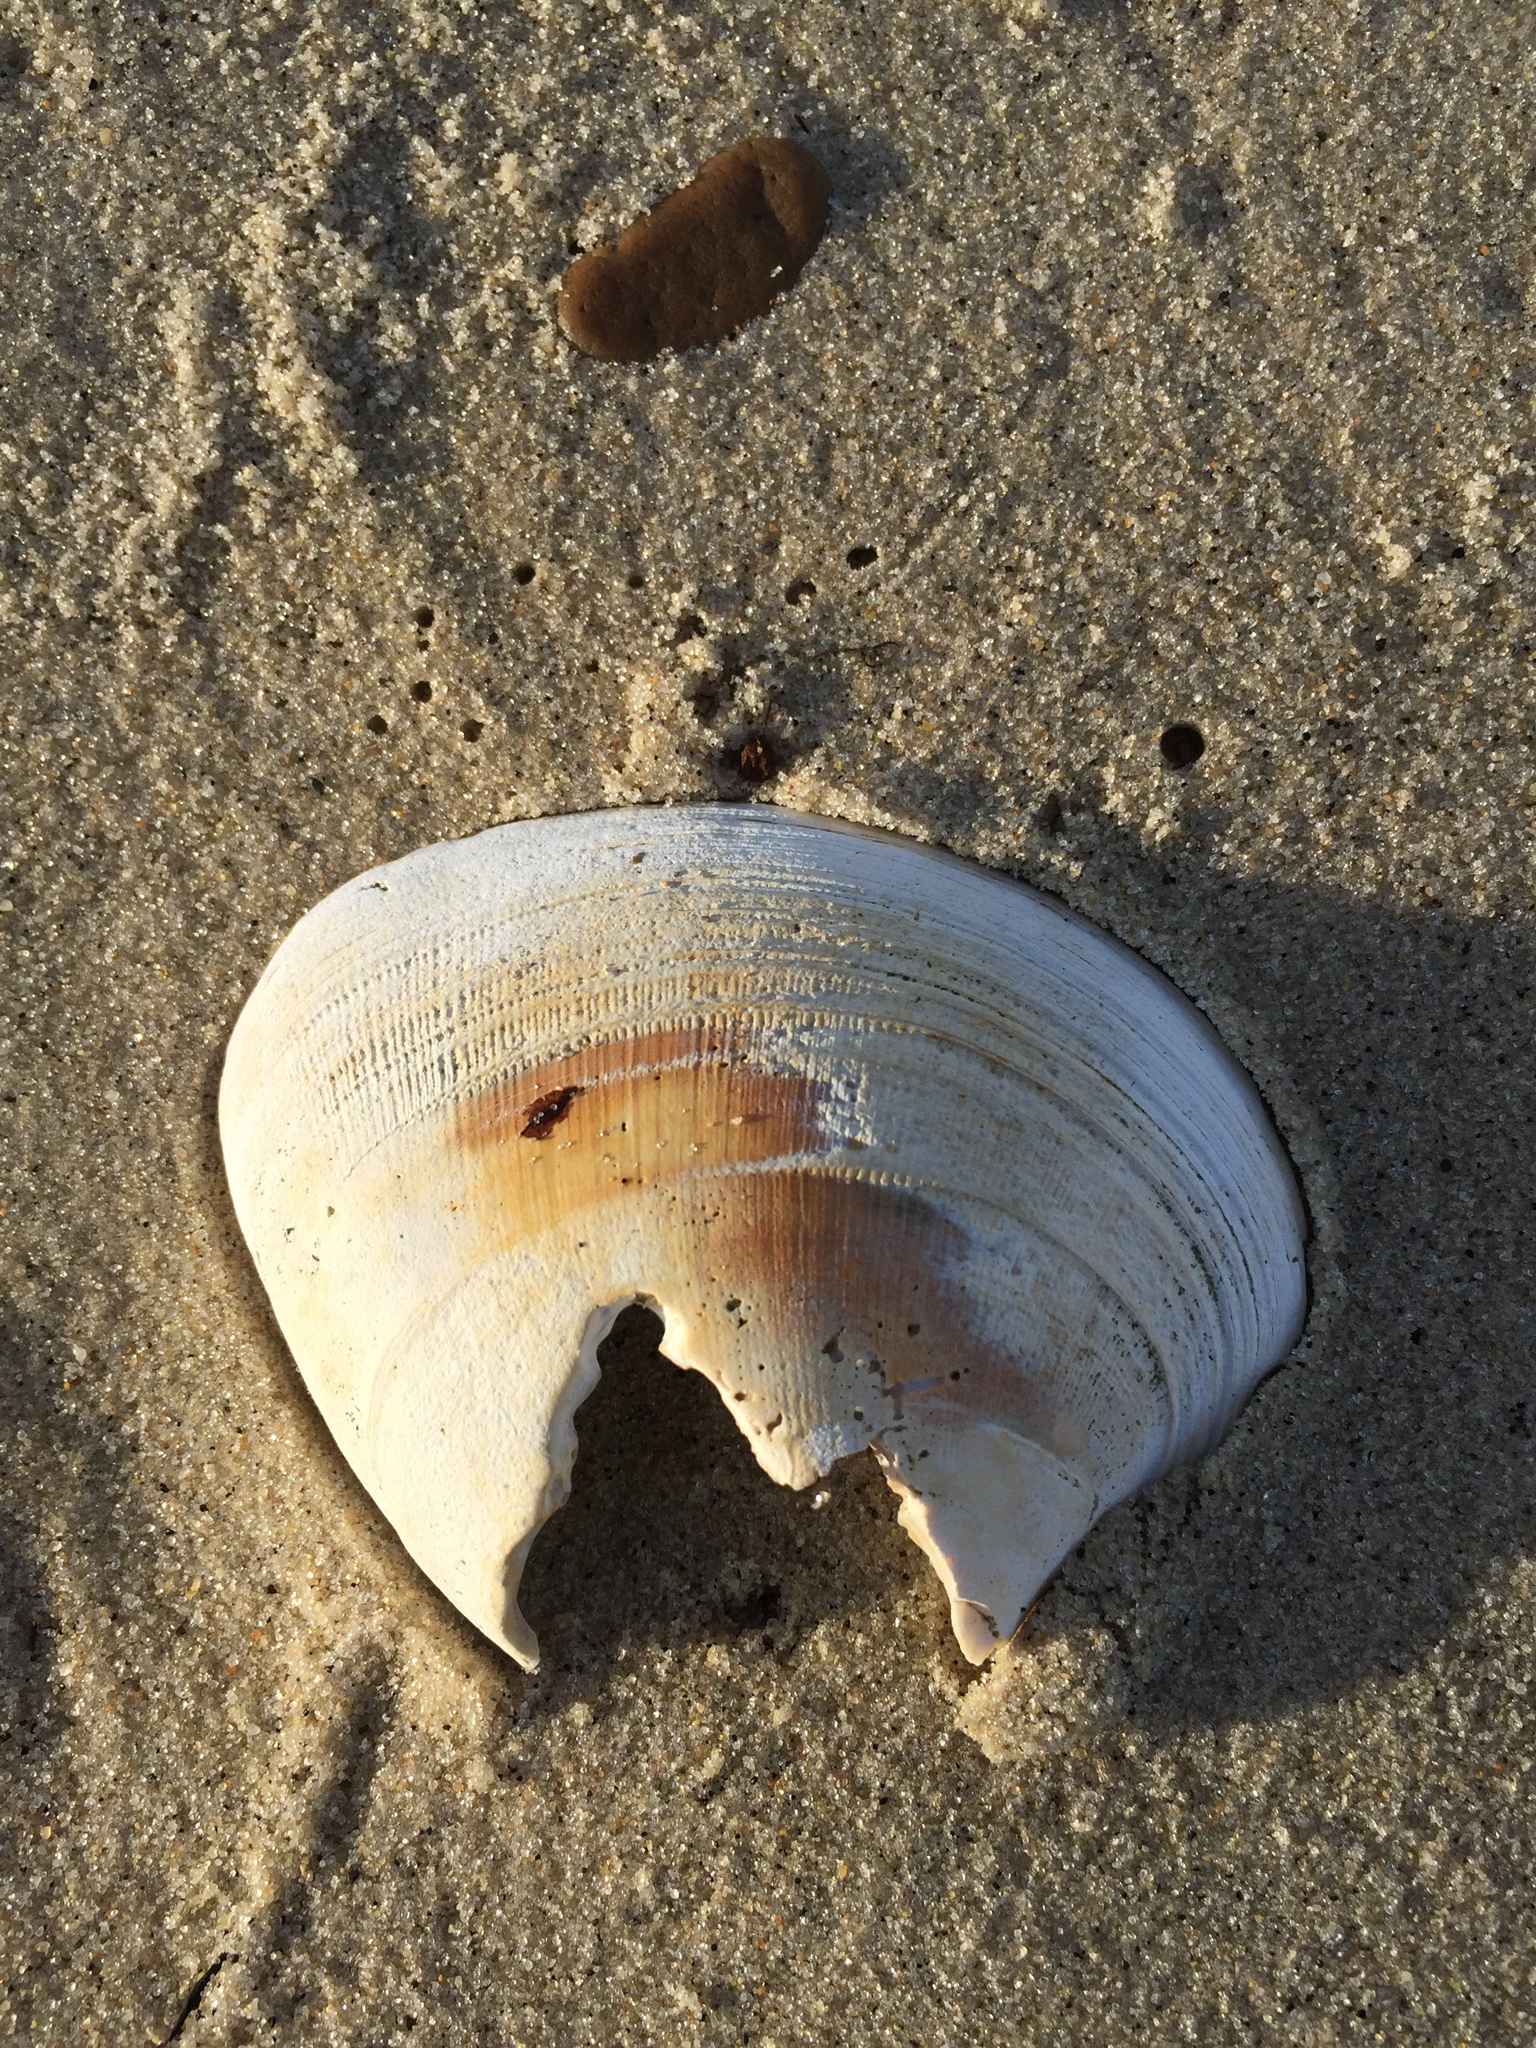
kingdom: Animalia
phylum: Mollusca
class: Bivalvia
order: Venerida
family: Veneridae
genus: Mercenaria
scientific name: Mercenaria mercenaria
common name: American hard-shelled clam
